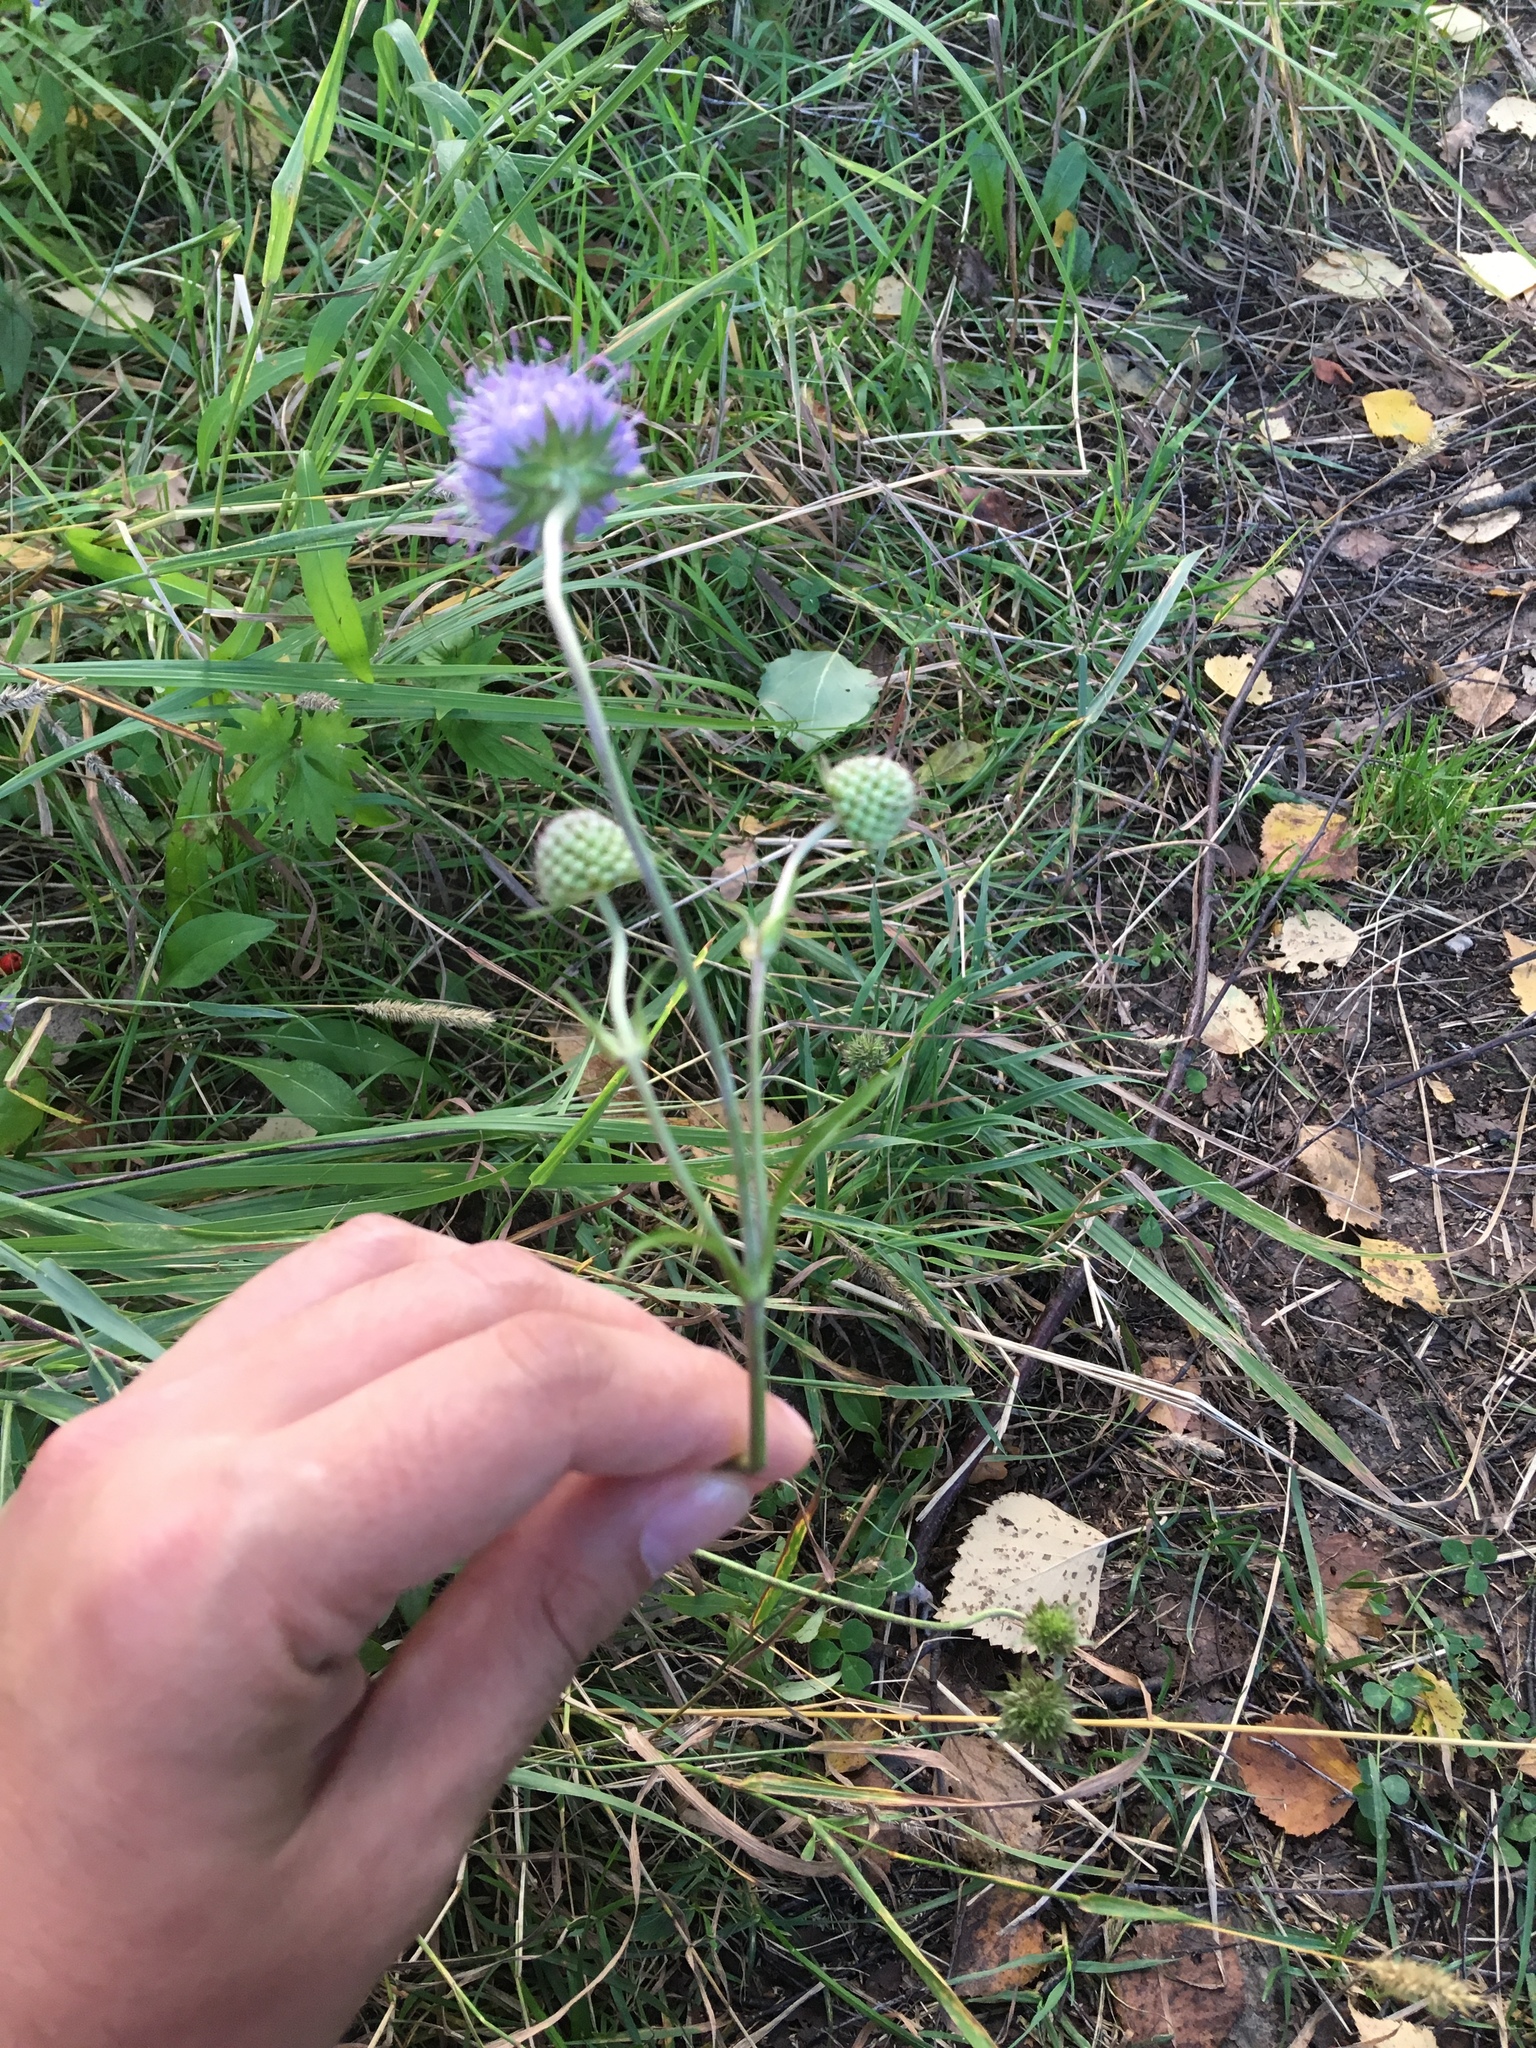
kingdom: Plantae
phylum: Tracheophyta
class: Magnoliopsida
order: Dipsacales
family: Caprifoliaceae
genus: Succisa
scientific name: Succisa pratensis
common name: Devil's-bit
